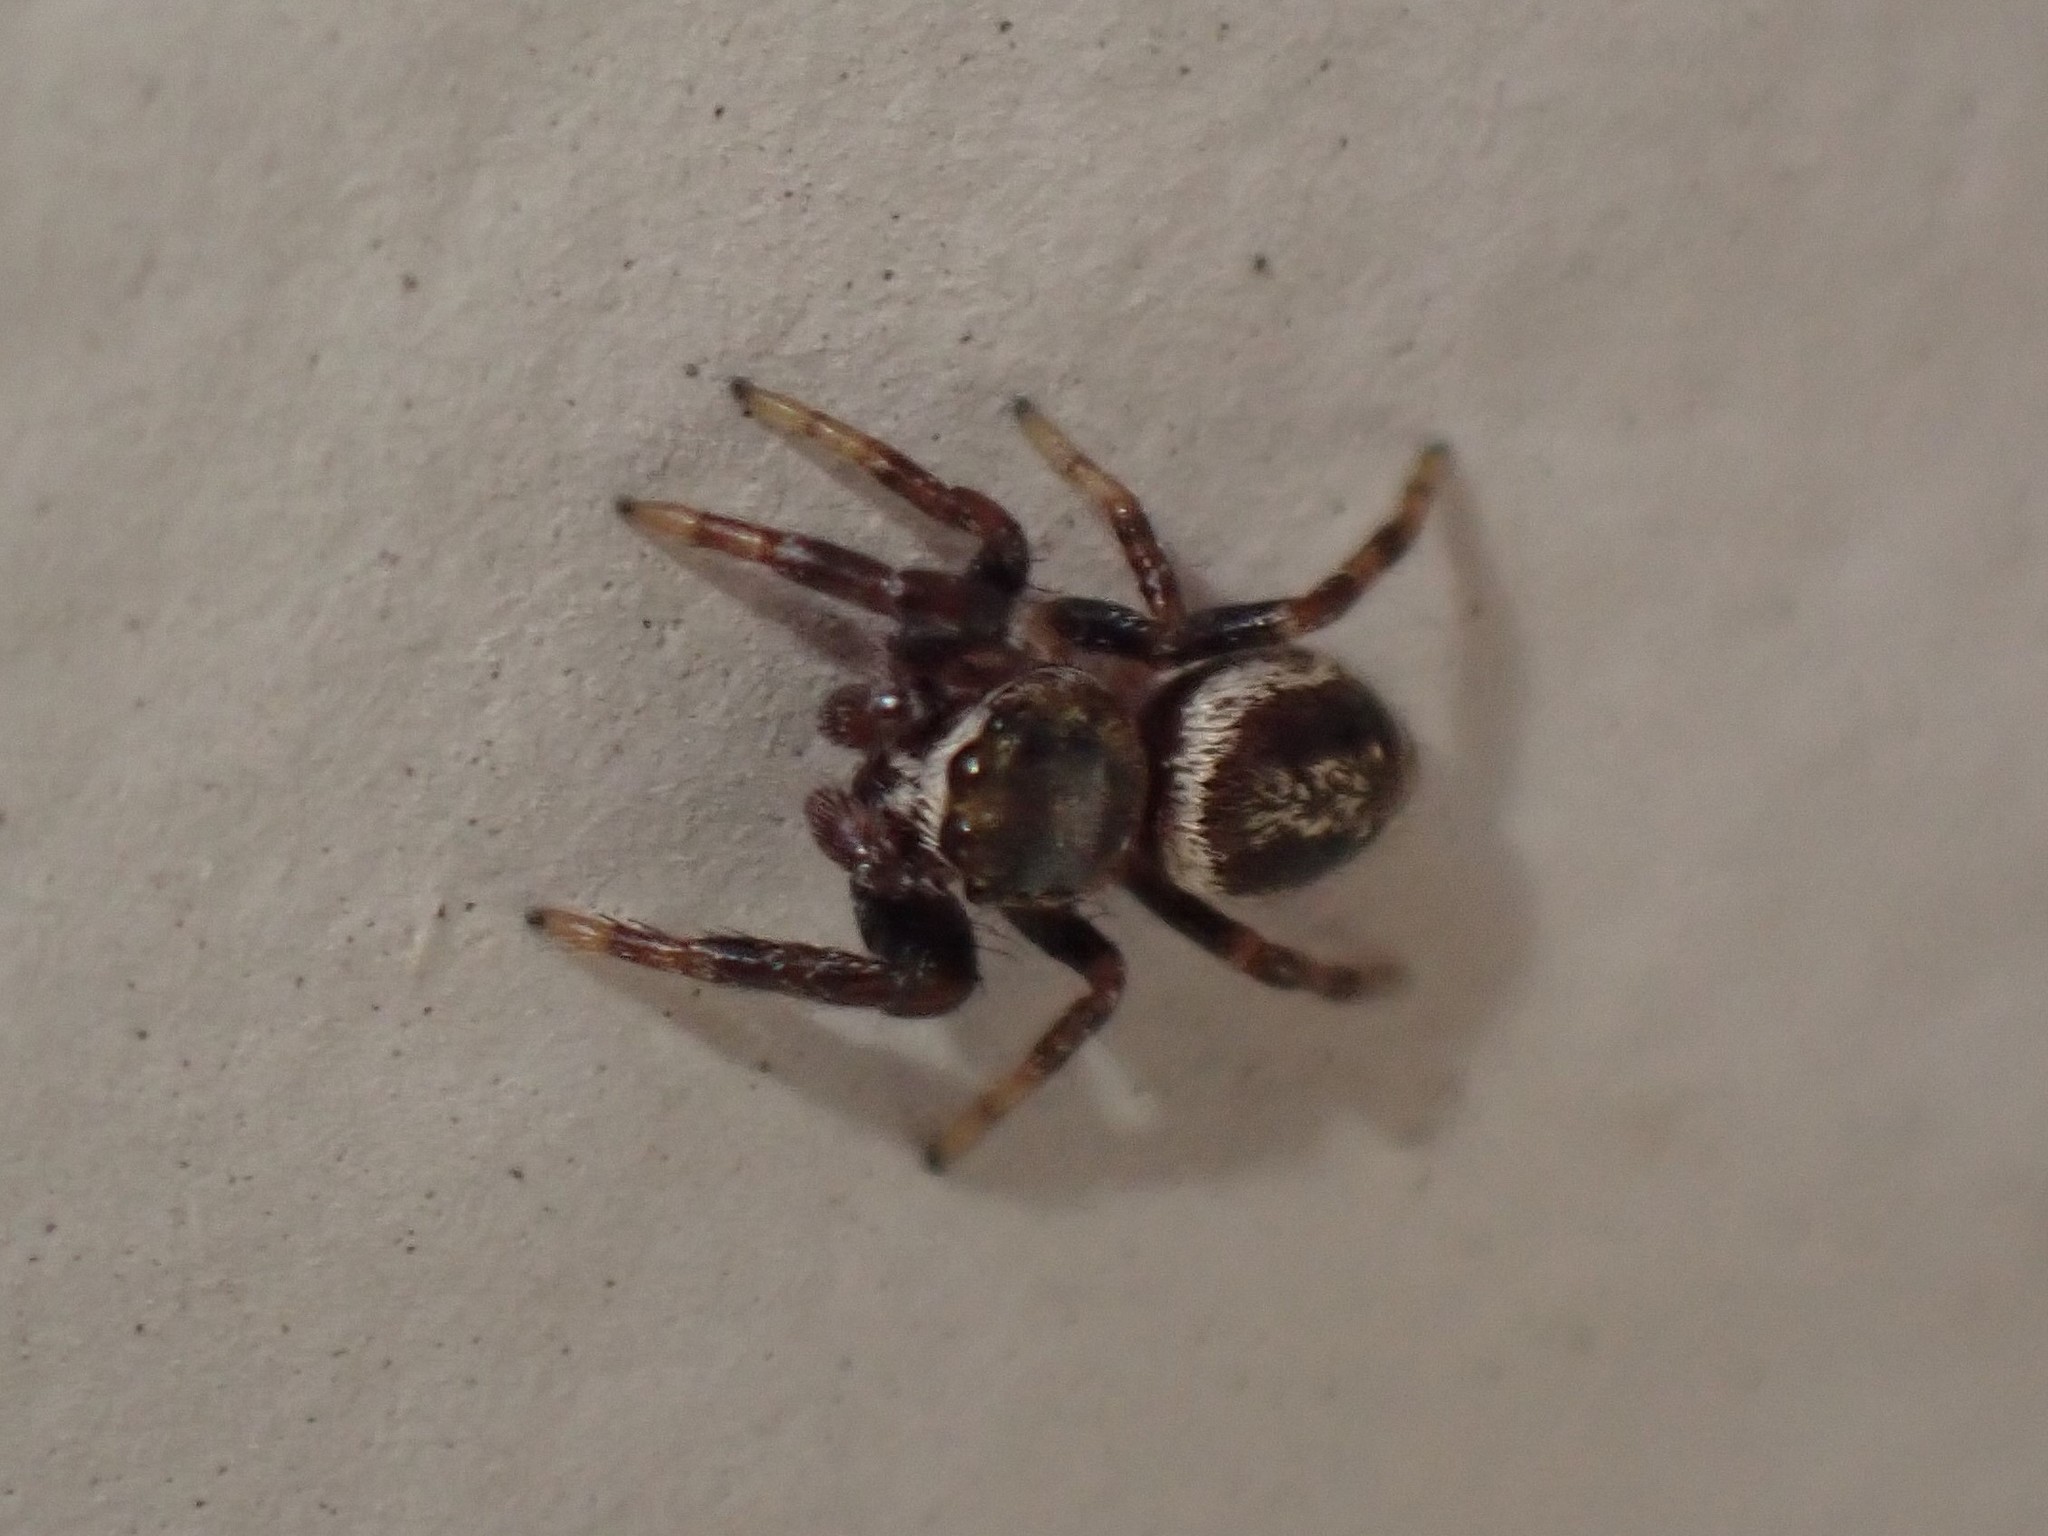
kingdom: Animalia
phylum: Arthropoda
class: Arachnida
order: Araneae
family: Salticidae
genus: Metaphidippus
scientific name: Metaphidippus manni
